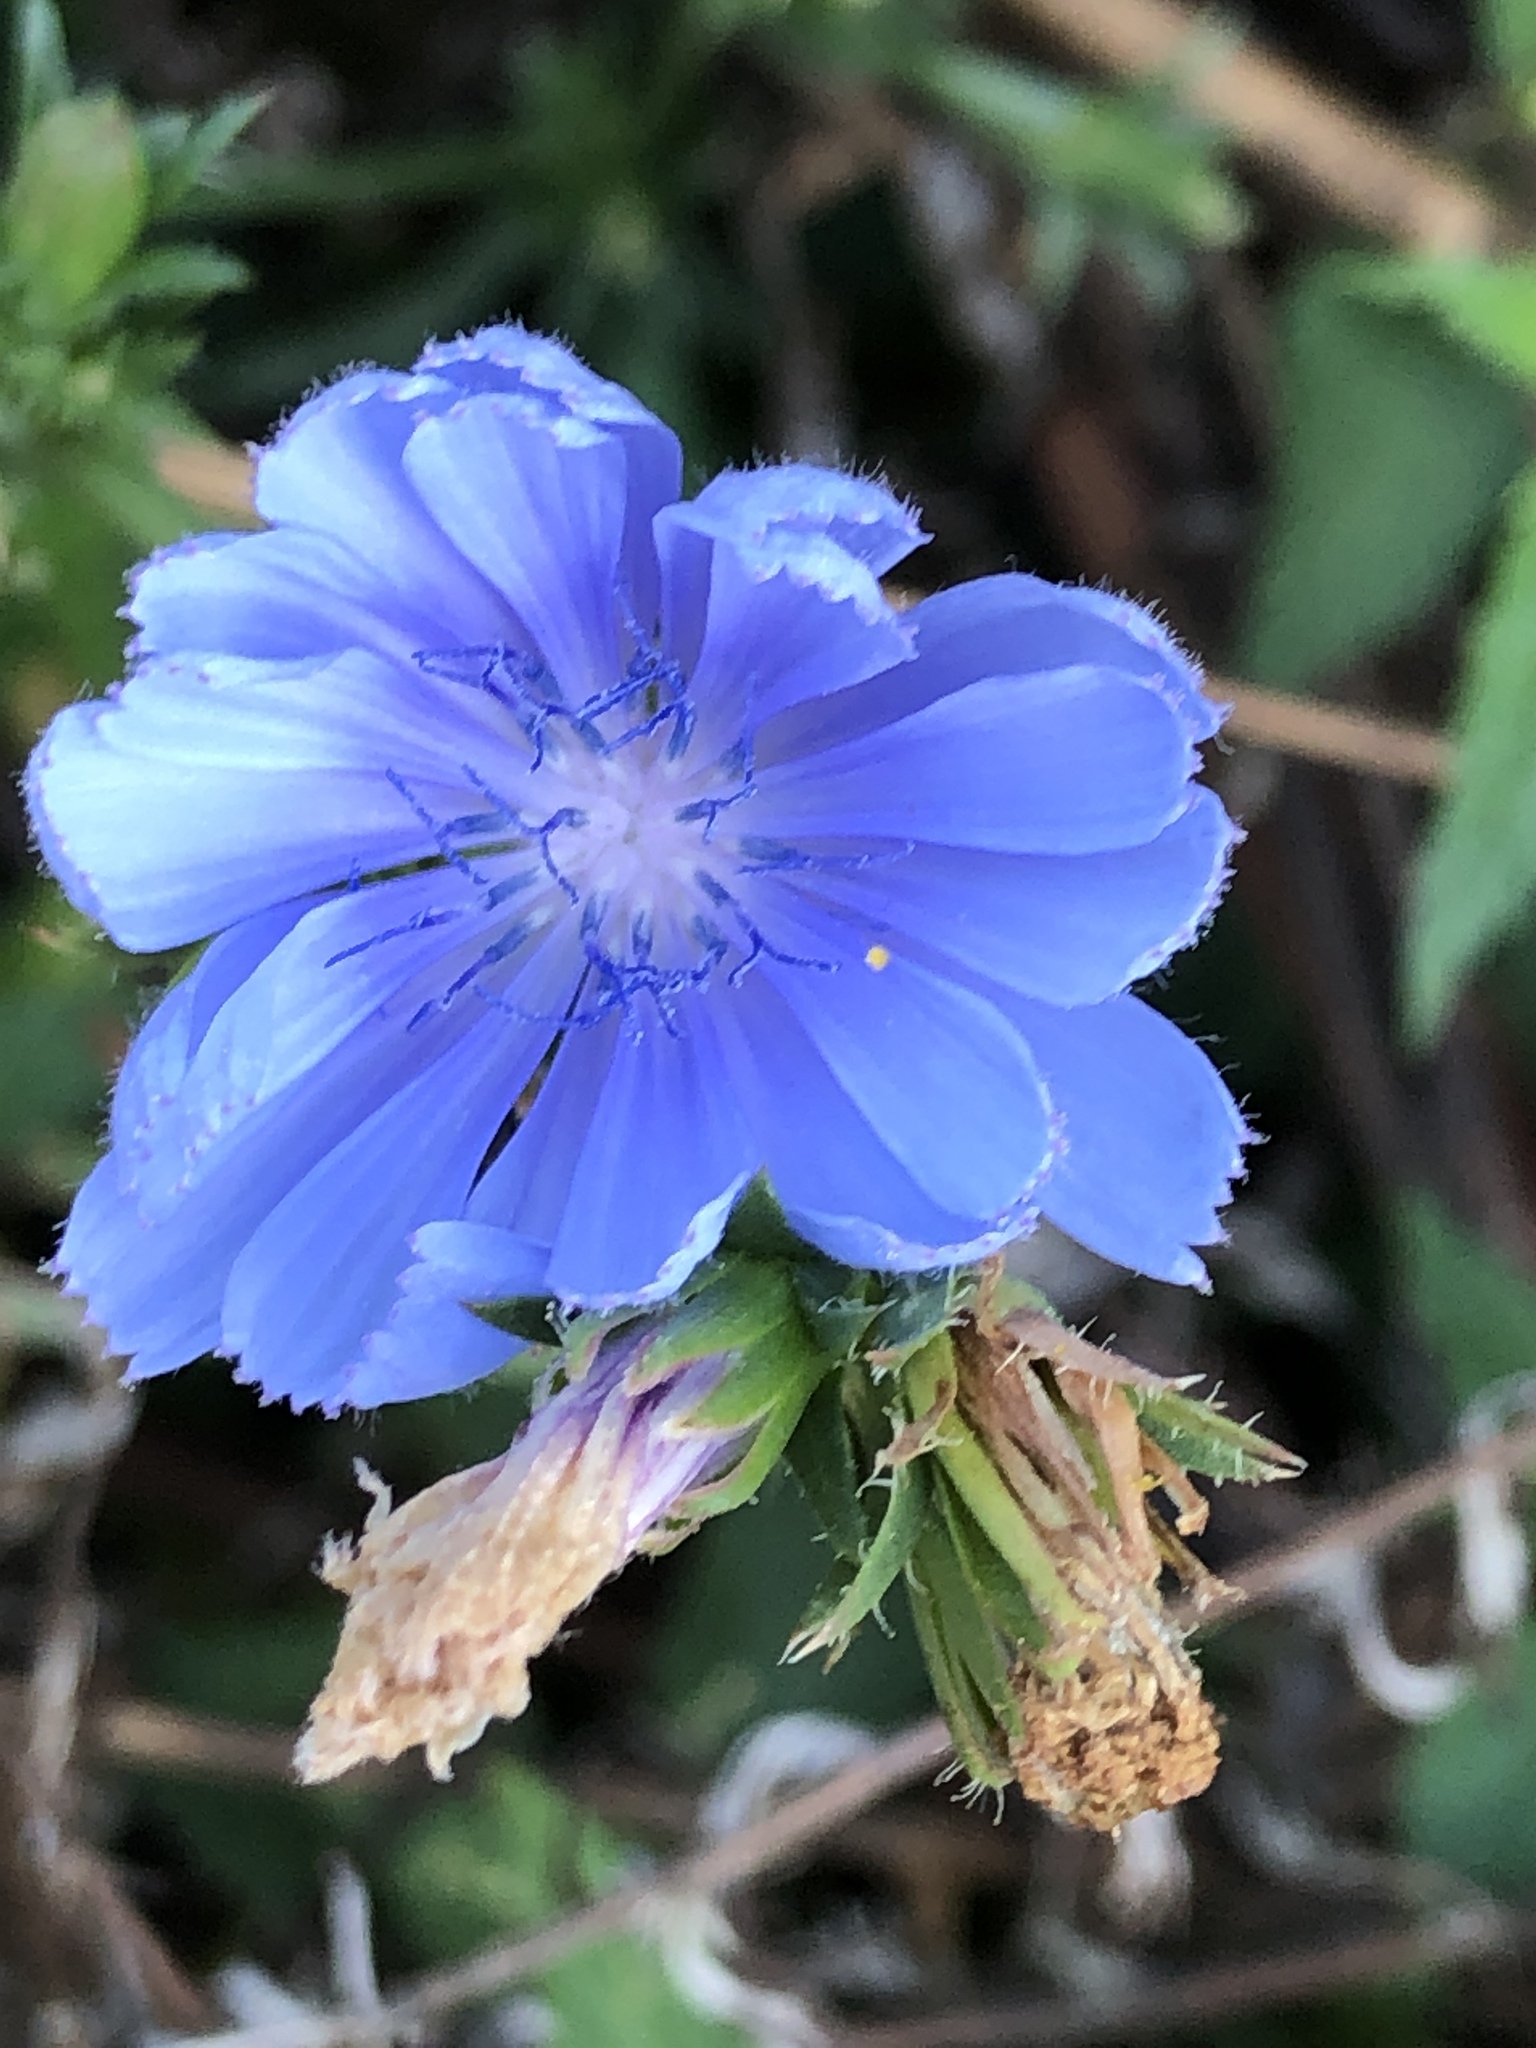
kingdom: Plantae
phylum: Tracheophyta
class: Magnoliopsida
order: Asterales
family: Asteraceae
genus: Cichorium
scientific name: Cichorium intybus
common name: Chicory
